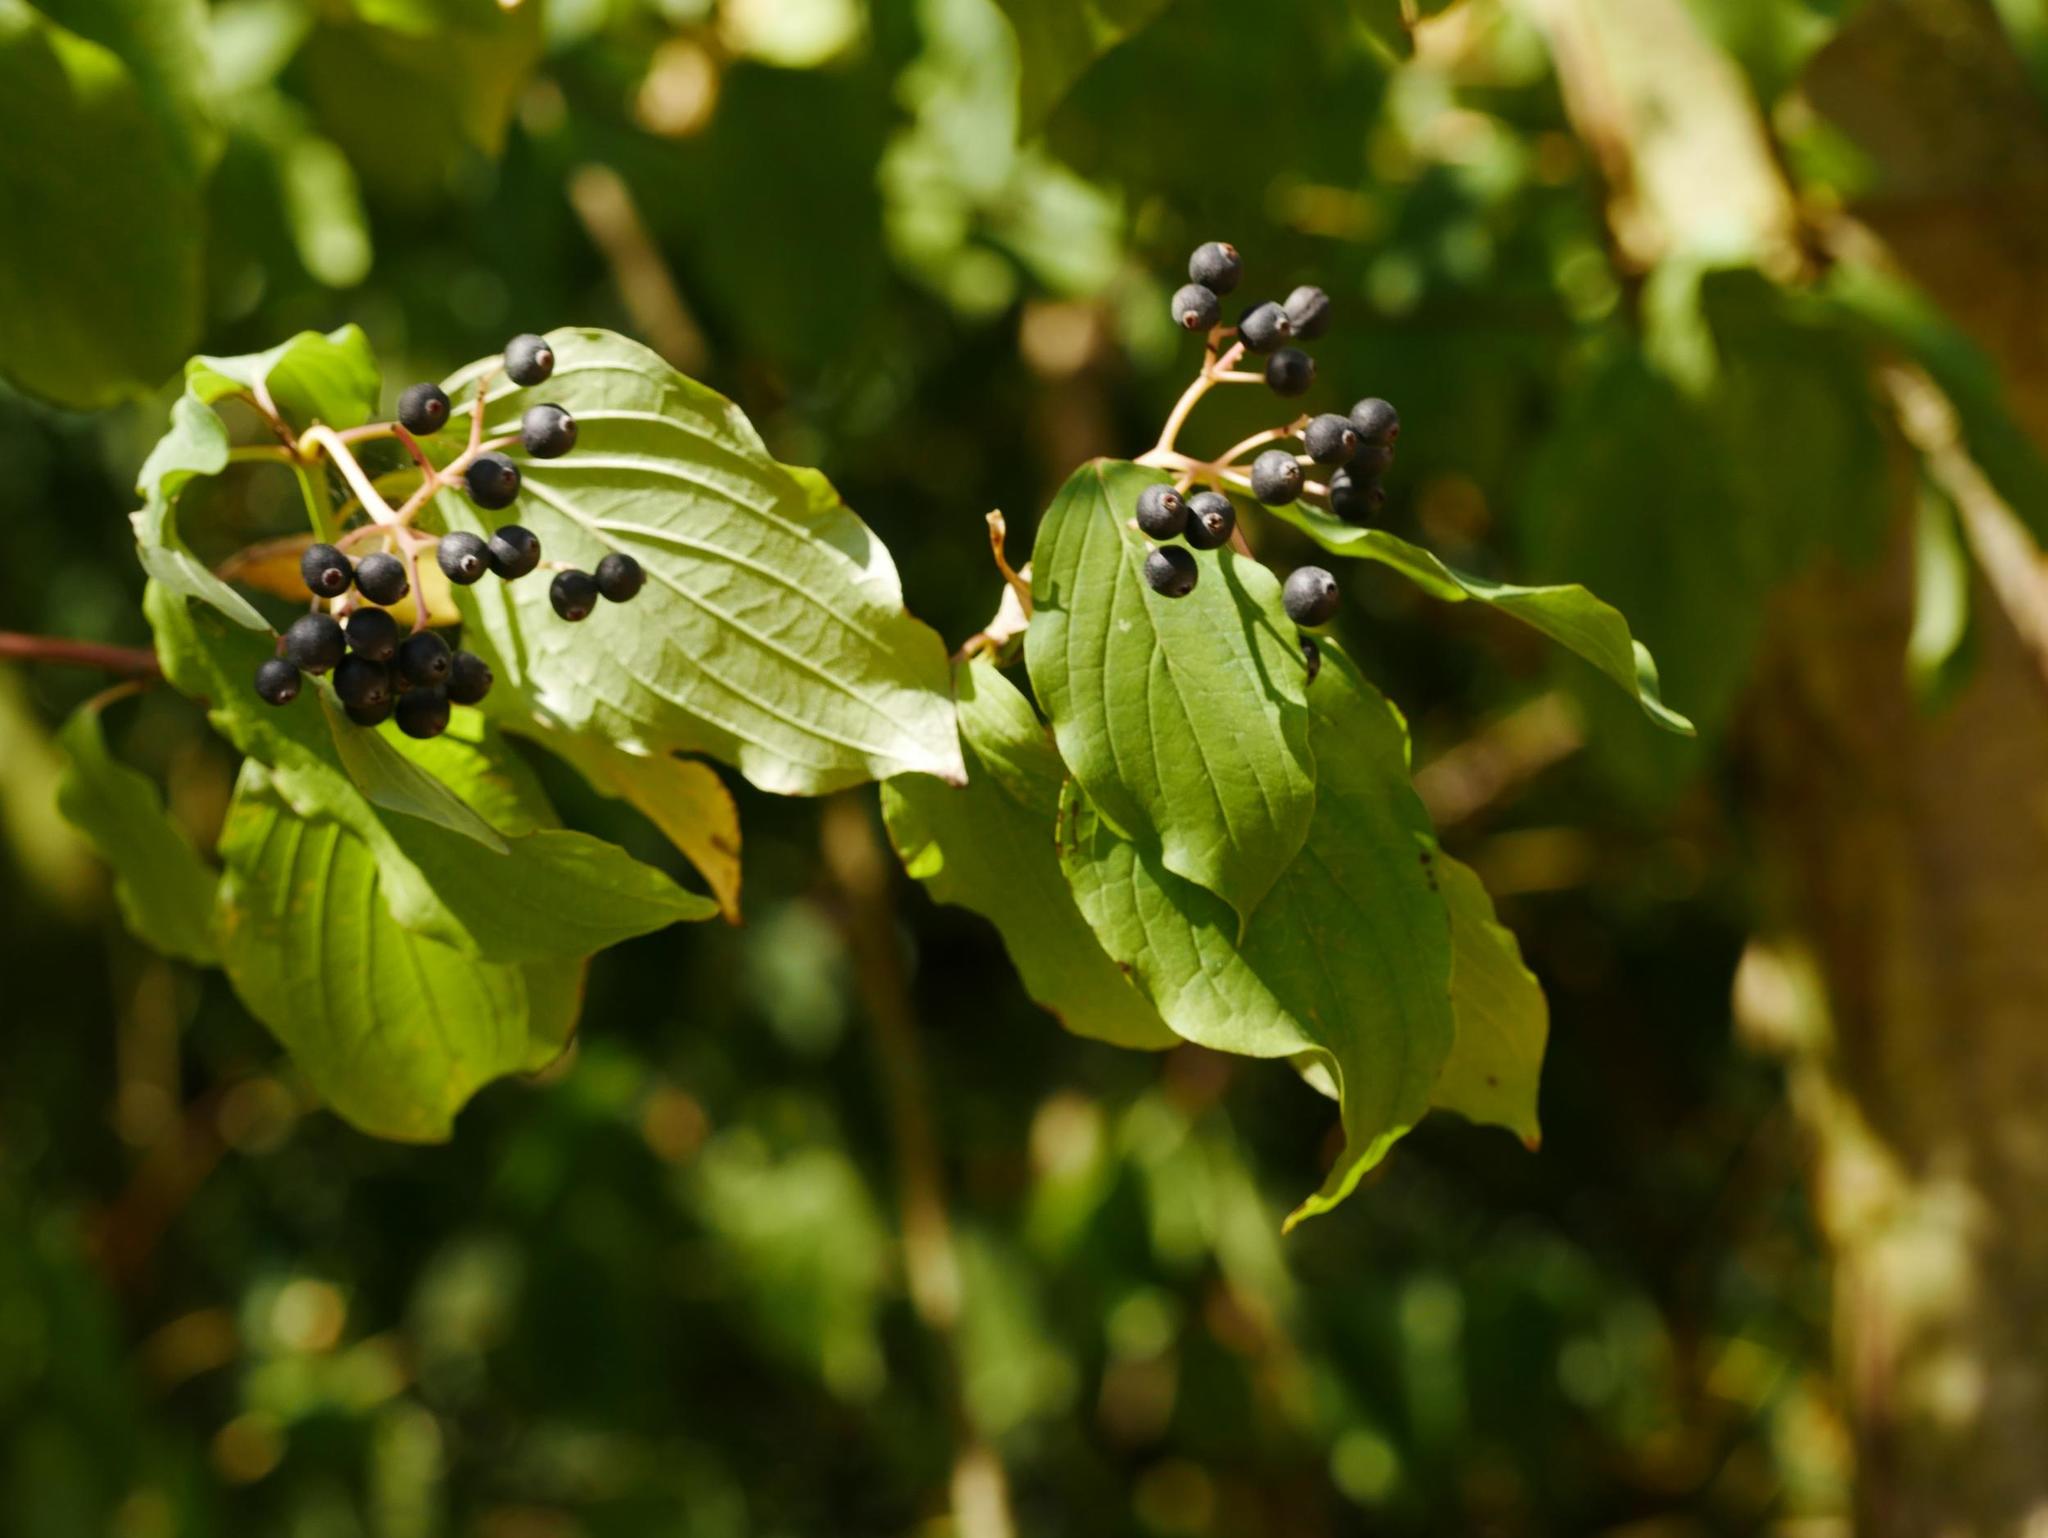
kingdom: Plantae
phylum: Tracheophyta
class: Magnoliopsida
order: Cornales
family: Cornaceae
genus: Cornus
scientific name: Cornus sanguinea
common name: Dogwood
